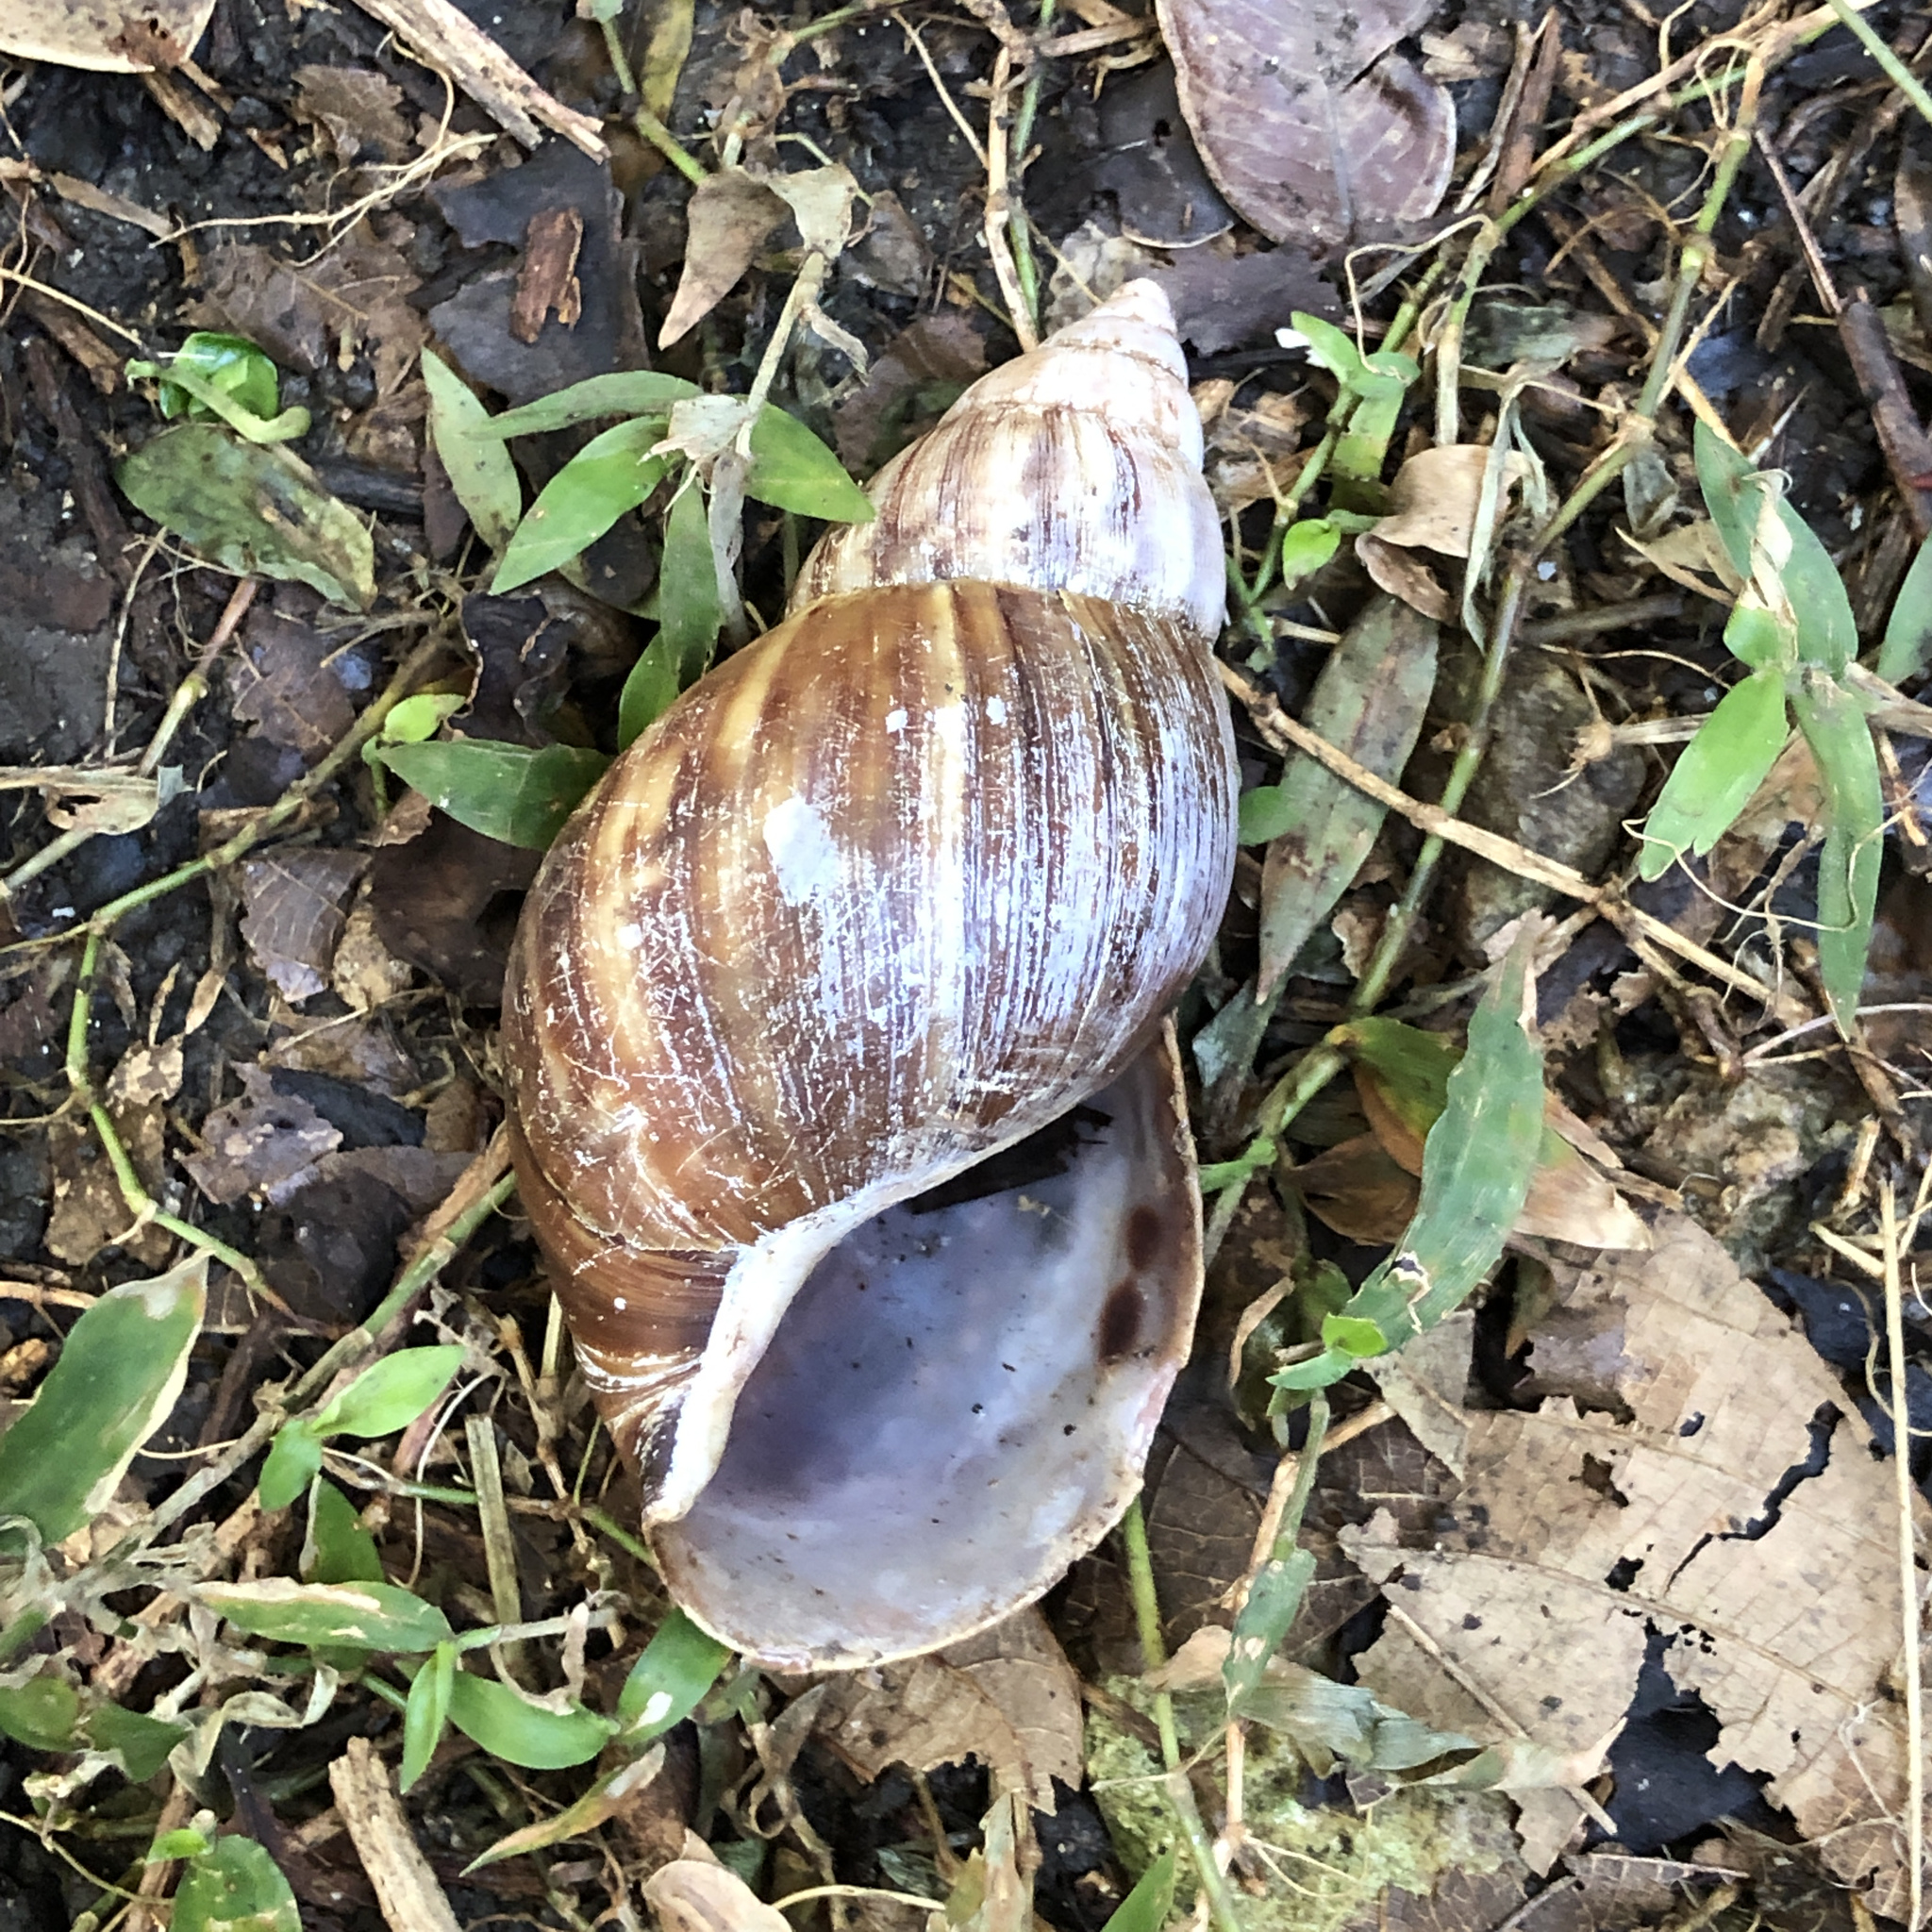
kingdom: Animalia
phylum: Mollusca
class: Gastropoda
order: Stylommatophora
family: Achatinidae
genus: Lissachatina
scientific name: Lissachatina fulica
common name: Giant african snail
